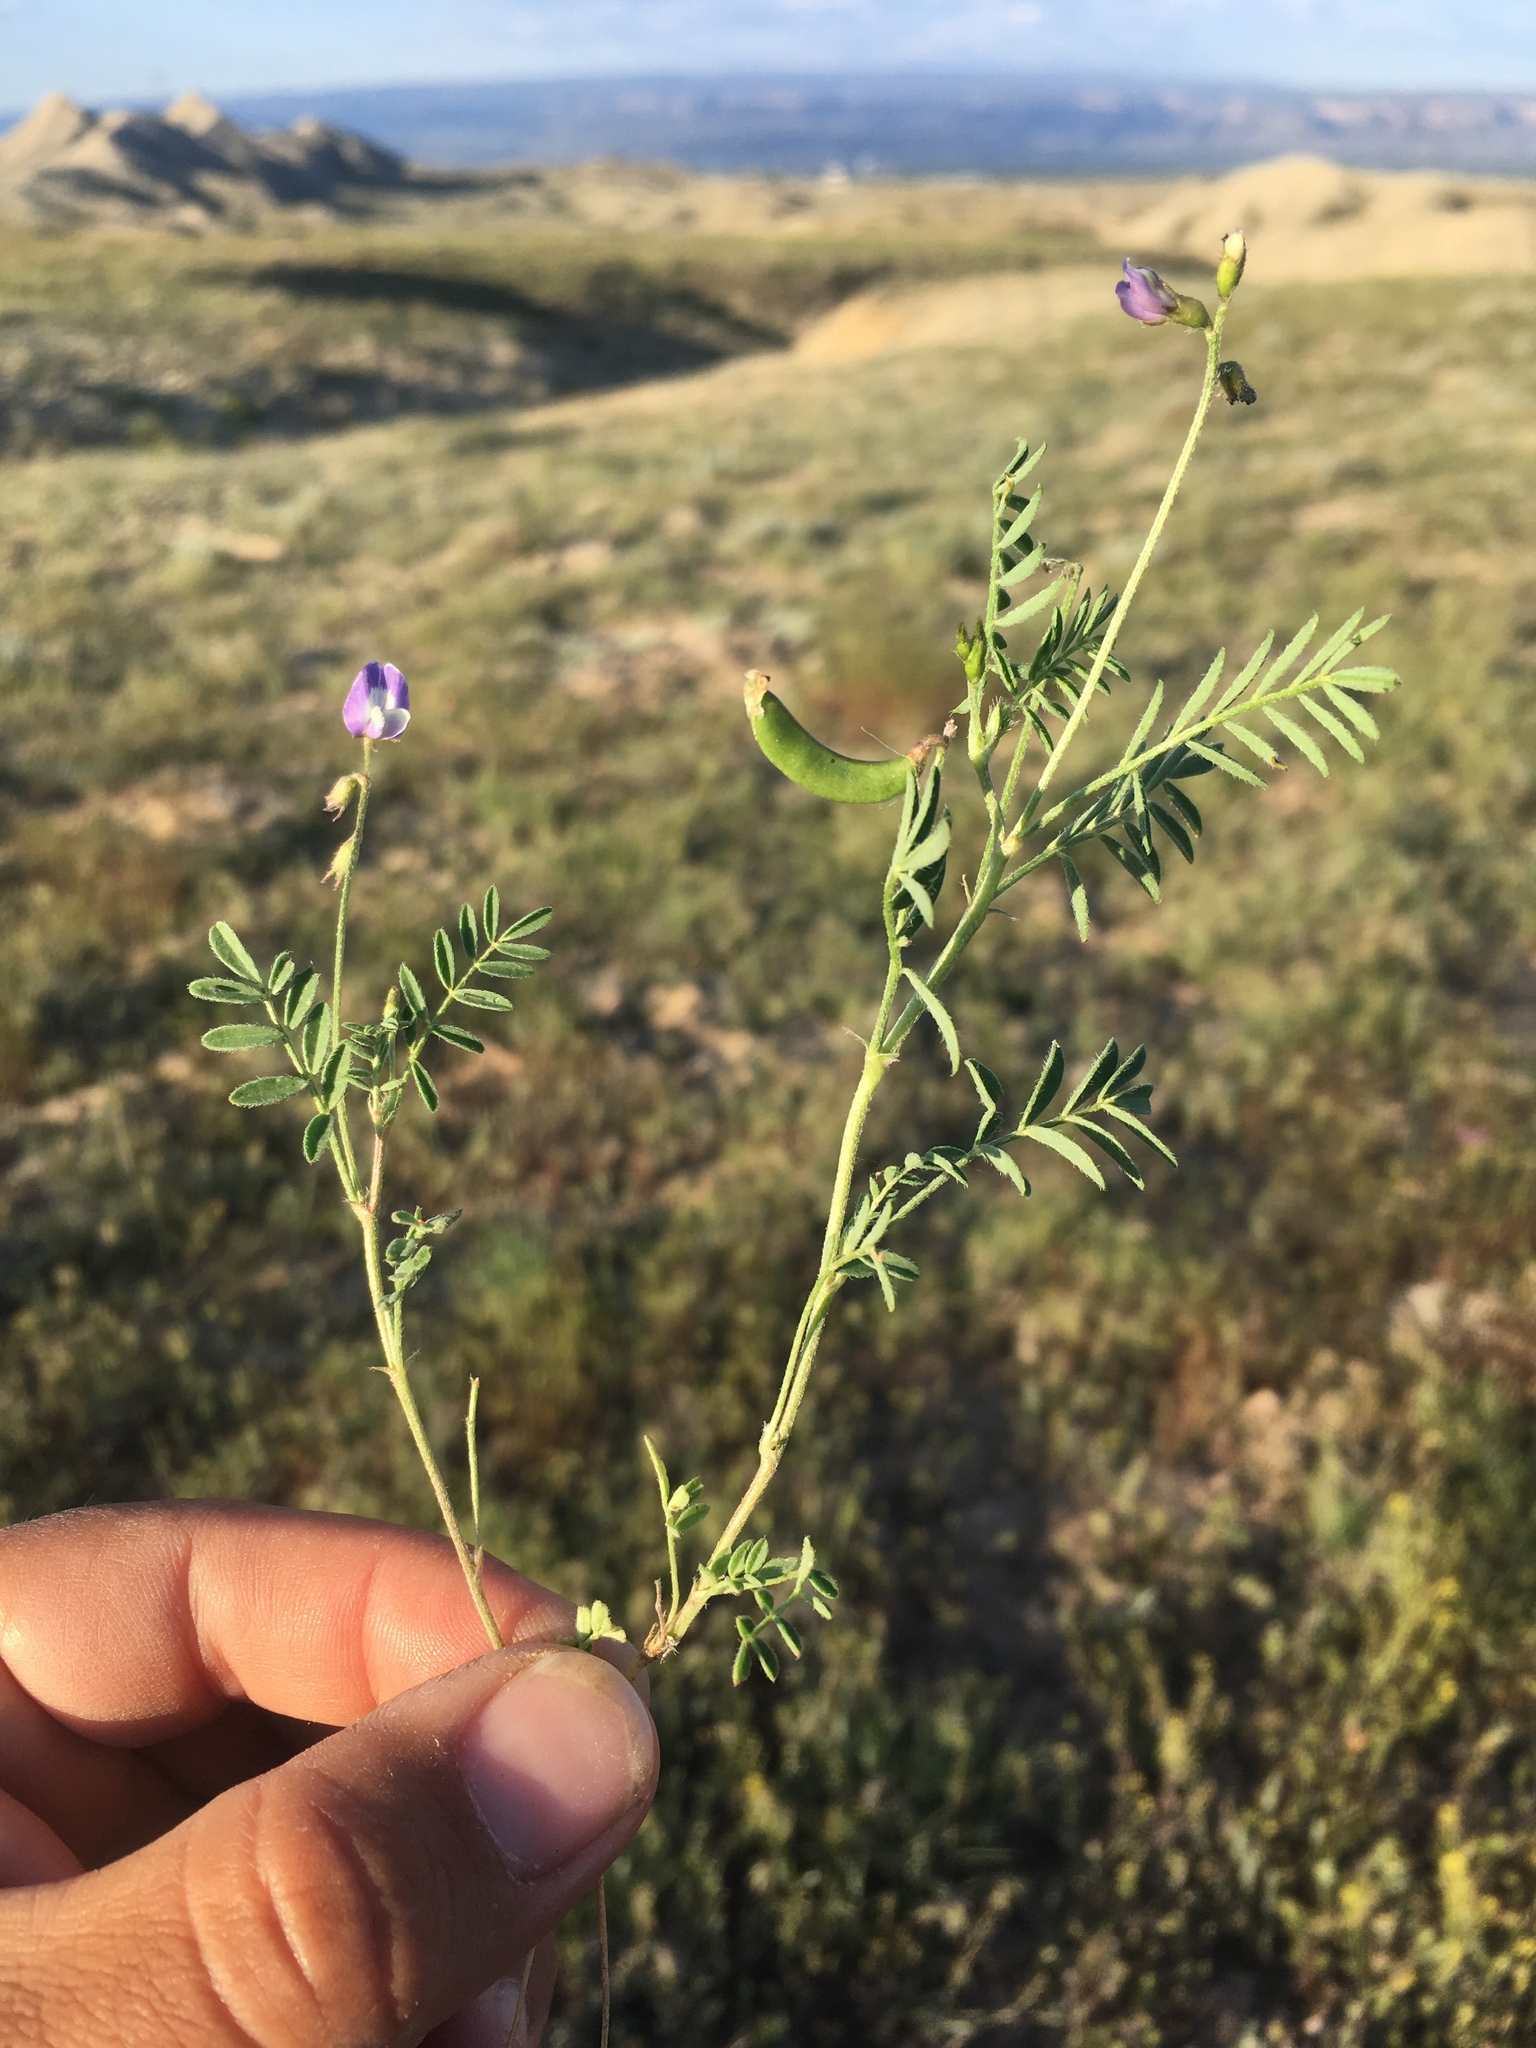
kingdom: Plantae
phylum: Tracheophyta
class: Magnoliopsida
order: Fabales
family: Fabaceae
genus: Astragalus
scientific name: Astragalus nuttallianus
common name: Smallflowered milkvetch
